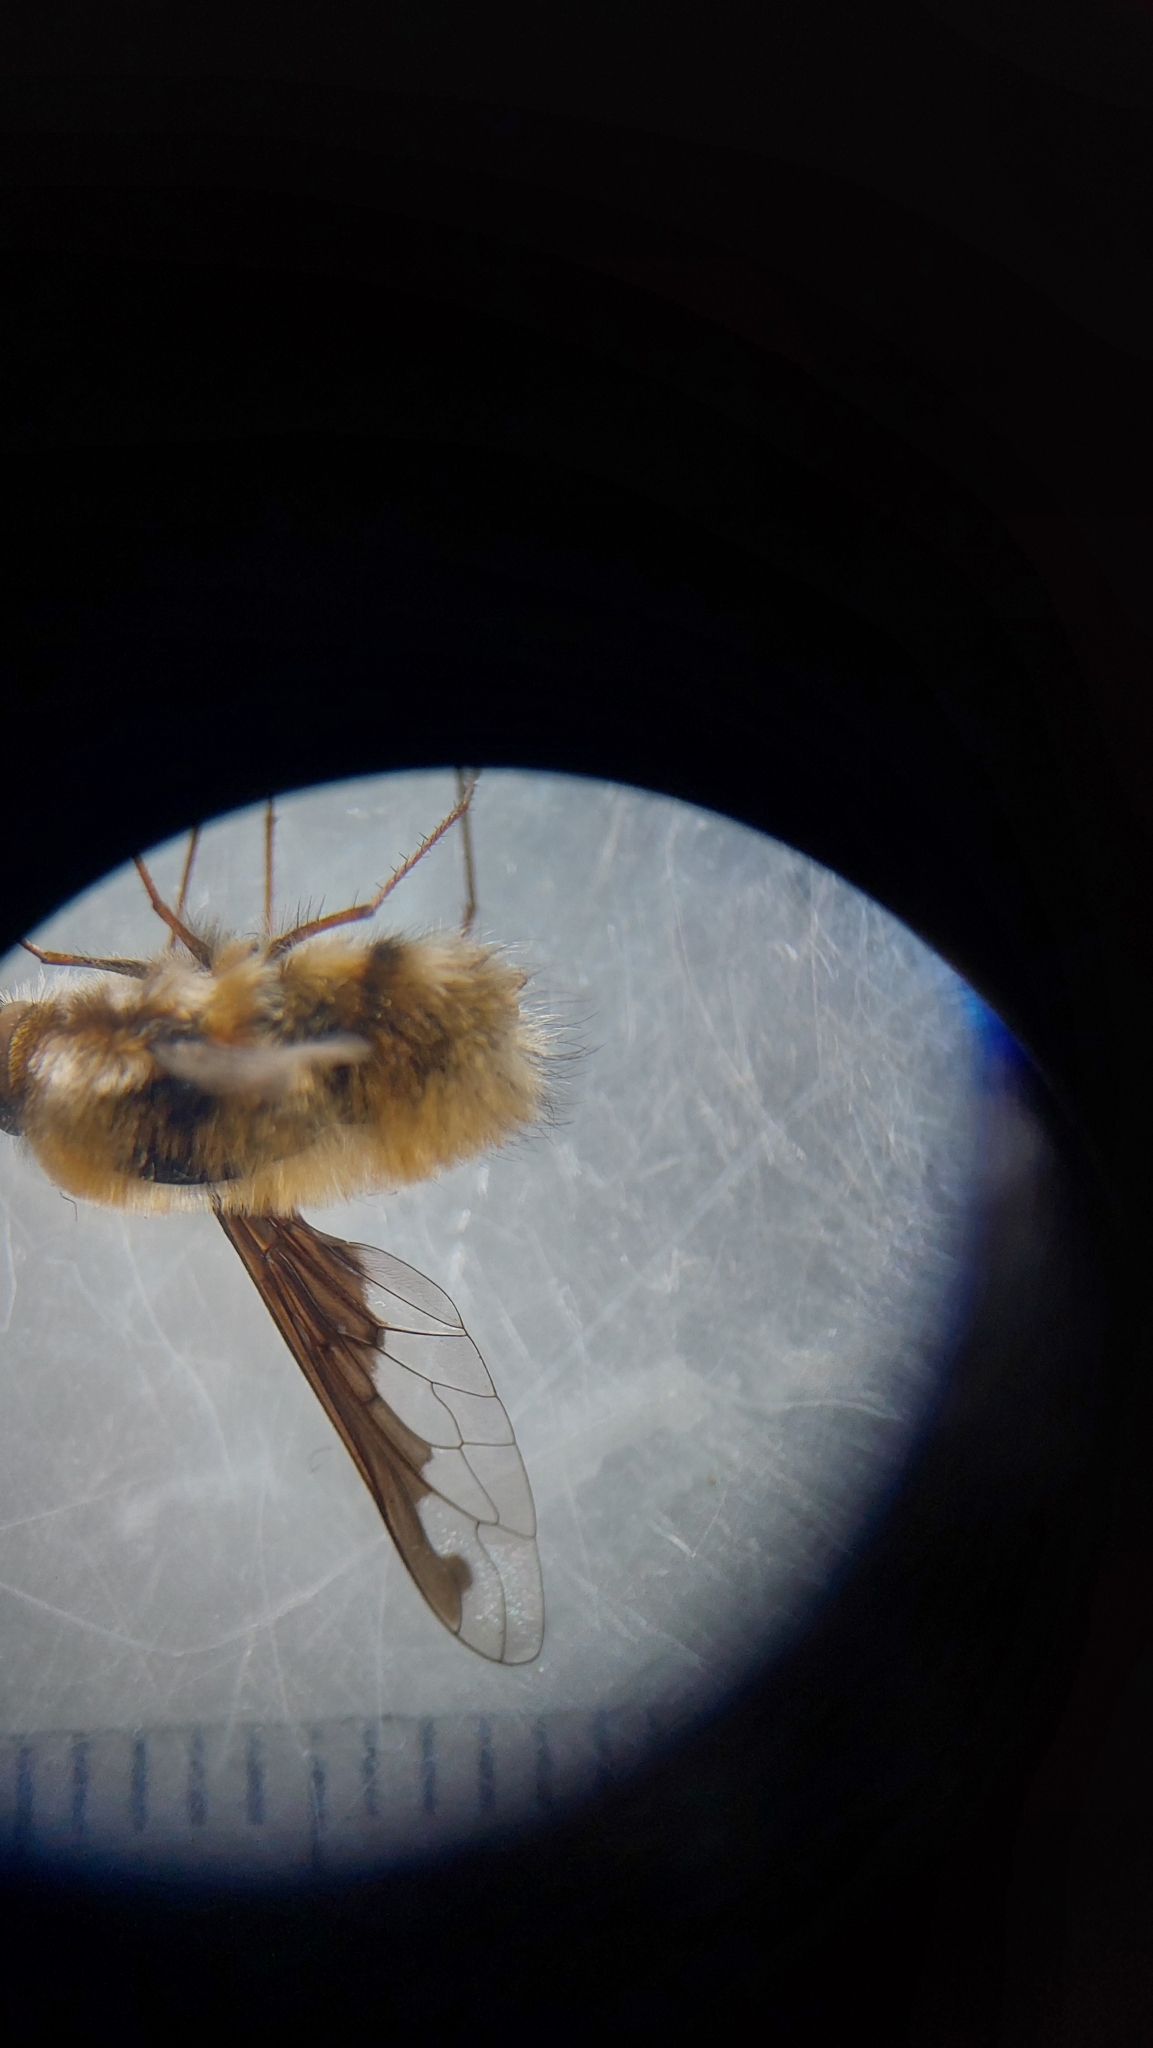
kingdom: Animalia
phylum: Arthropoda
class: Insecta
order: Diptera
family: Bombyliidae
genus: Bombylius
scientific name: Bombylius major
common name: Bee fly
